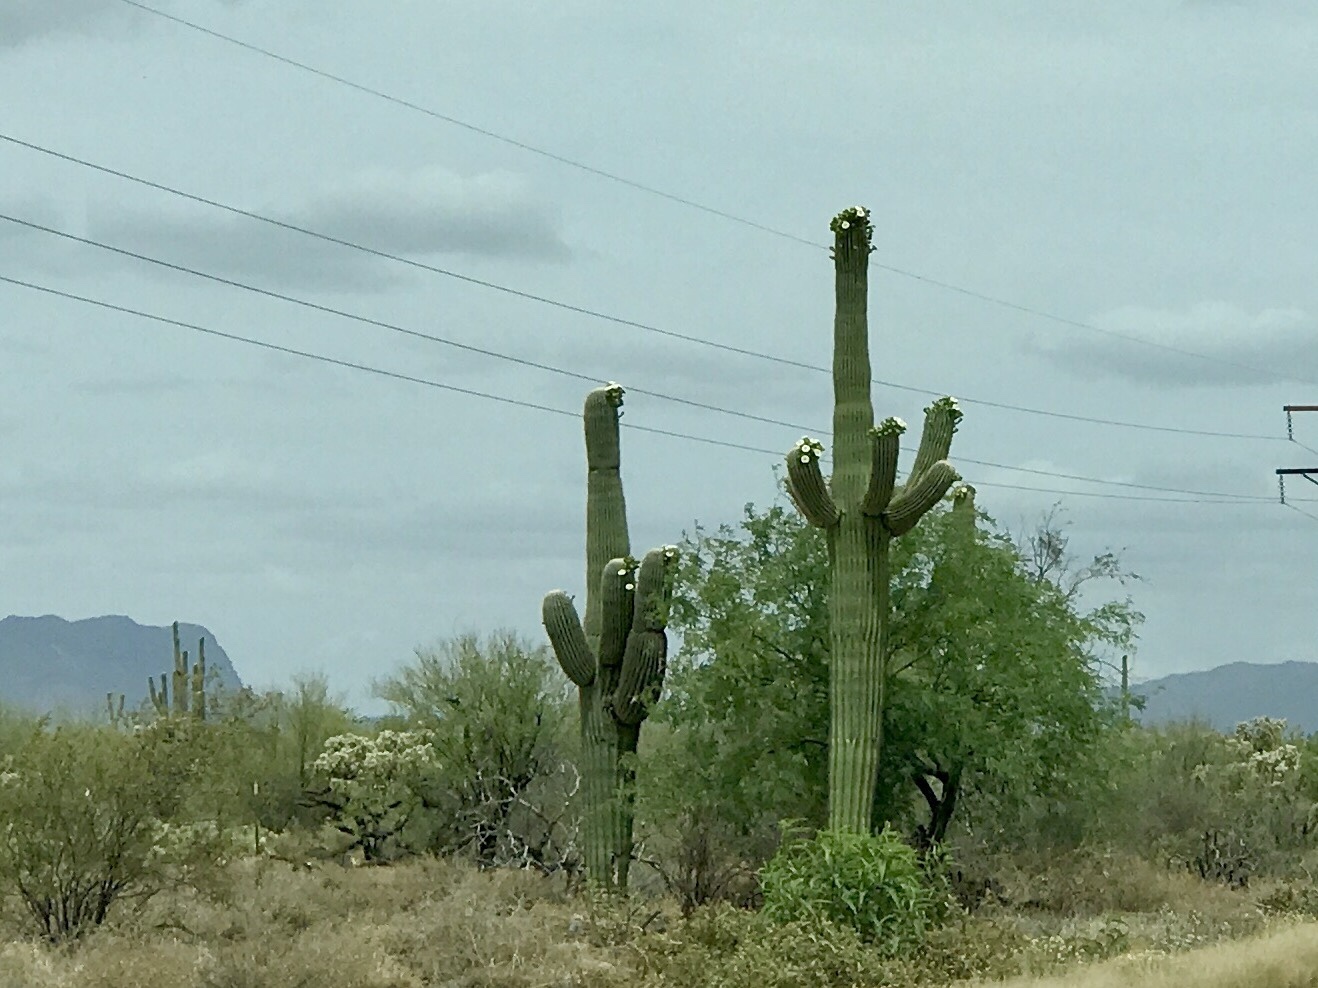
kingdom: Plantae
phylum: Tracheophyta
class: Magnoliopsida
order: Caryophyllales
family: Cactaceae
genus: Carnegiea
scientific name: Carnegiea gigantea
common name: Saguaro
